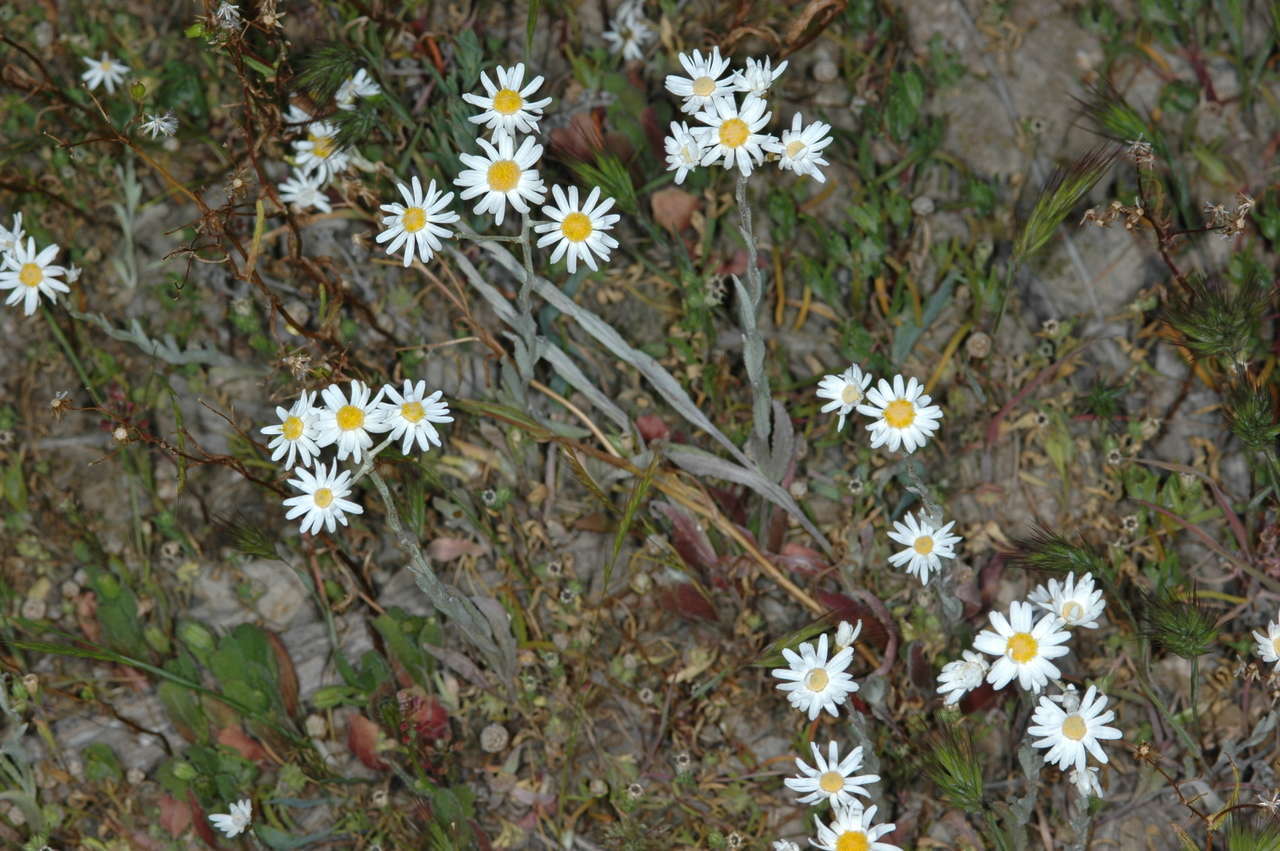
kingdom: Plantae
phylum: Tracheophyta
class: Magnoliopsida
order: Asterales
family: Asteraceae
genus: Rhodanthe
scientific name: Rhodanthe corymbiflora
